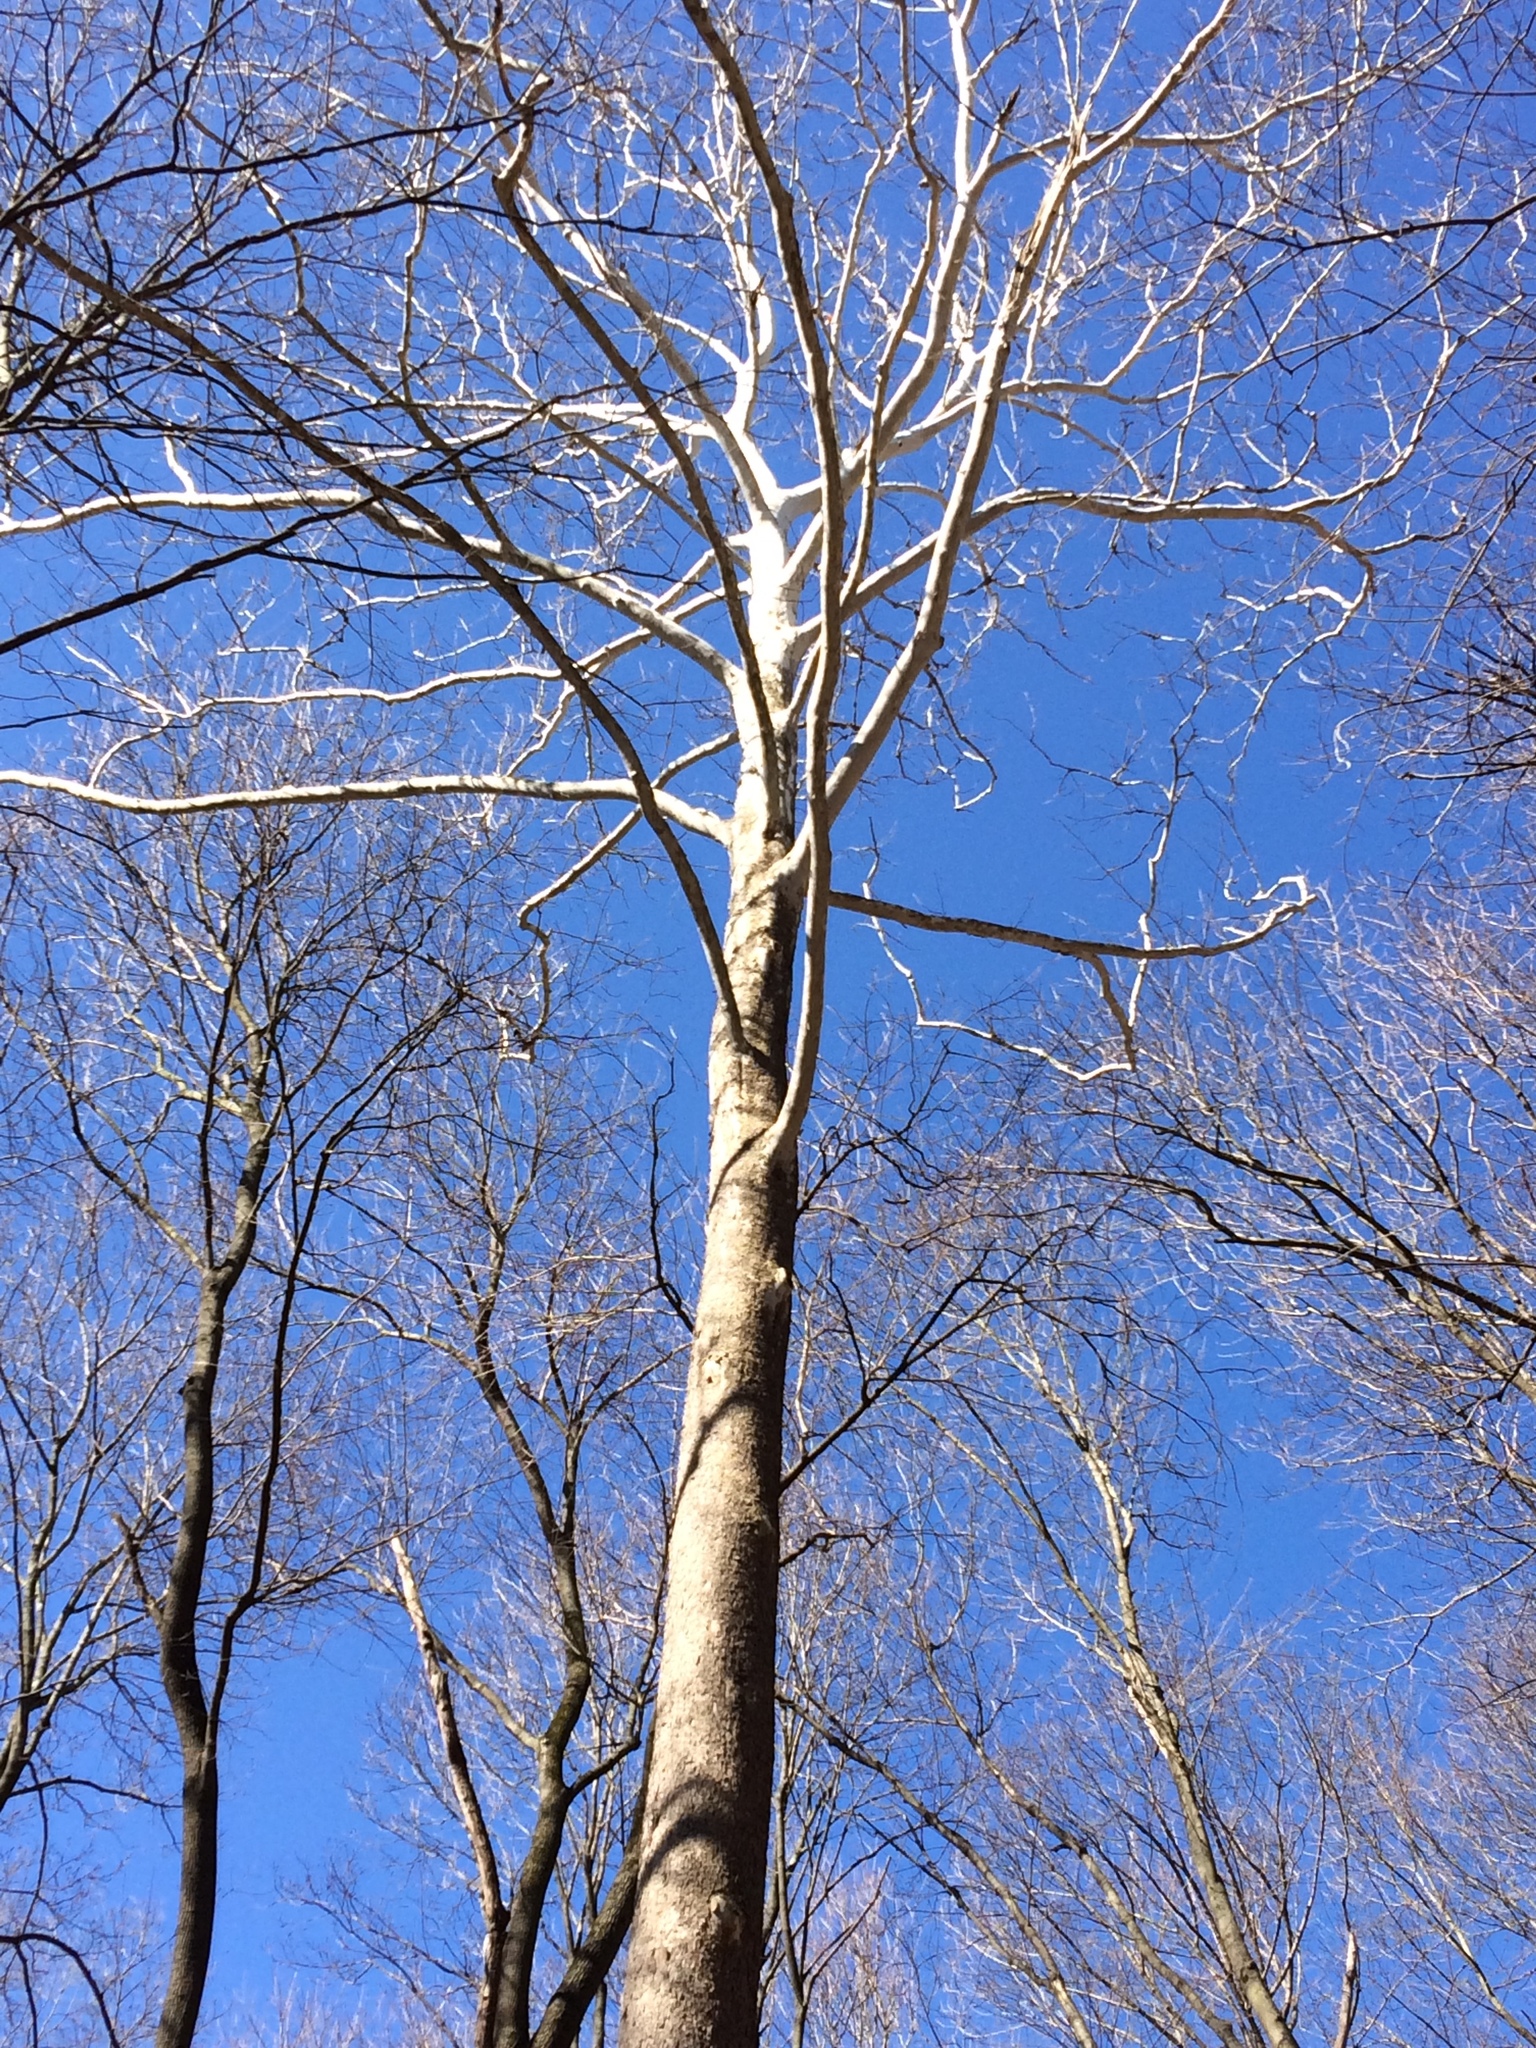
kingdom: Plantae
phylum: Tracheophyta
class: Magnoliopsida
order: Proteales
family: Platanaceae
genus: Platanus
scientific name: Platanus occidentalis
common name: American sycamore
